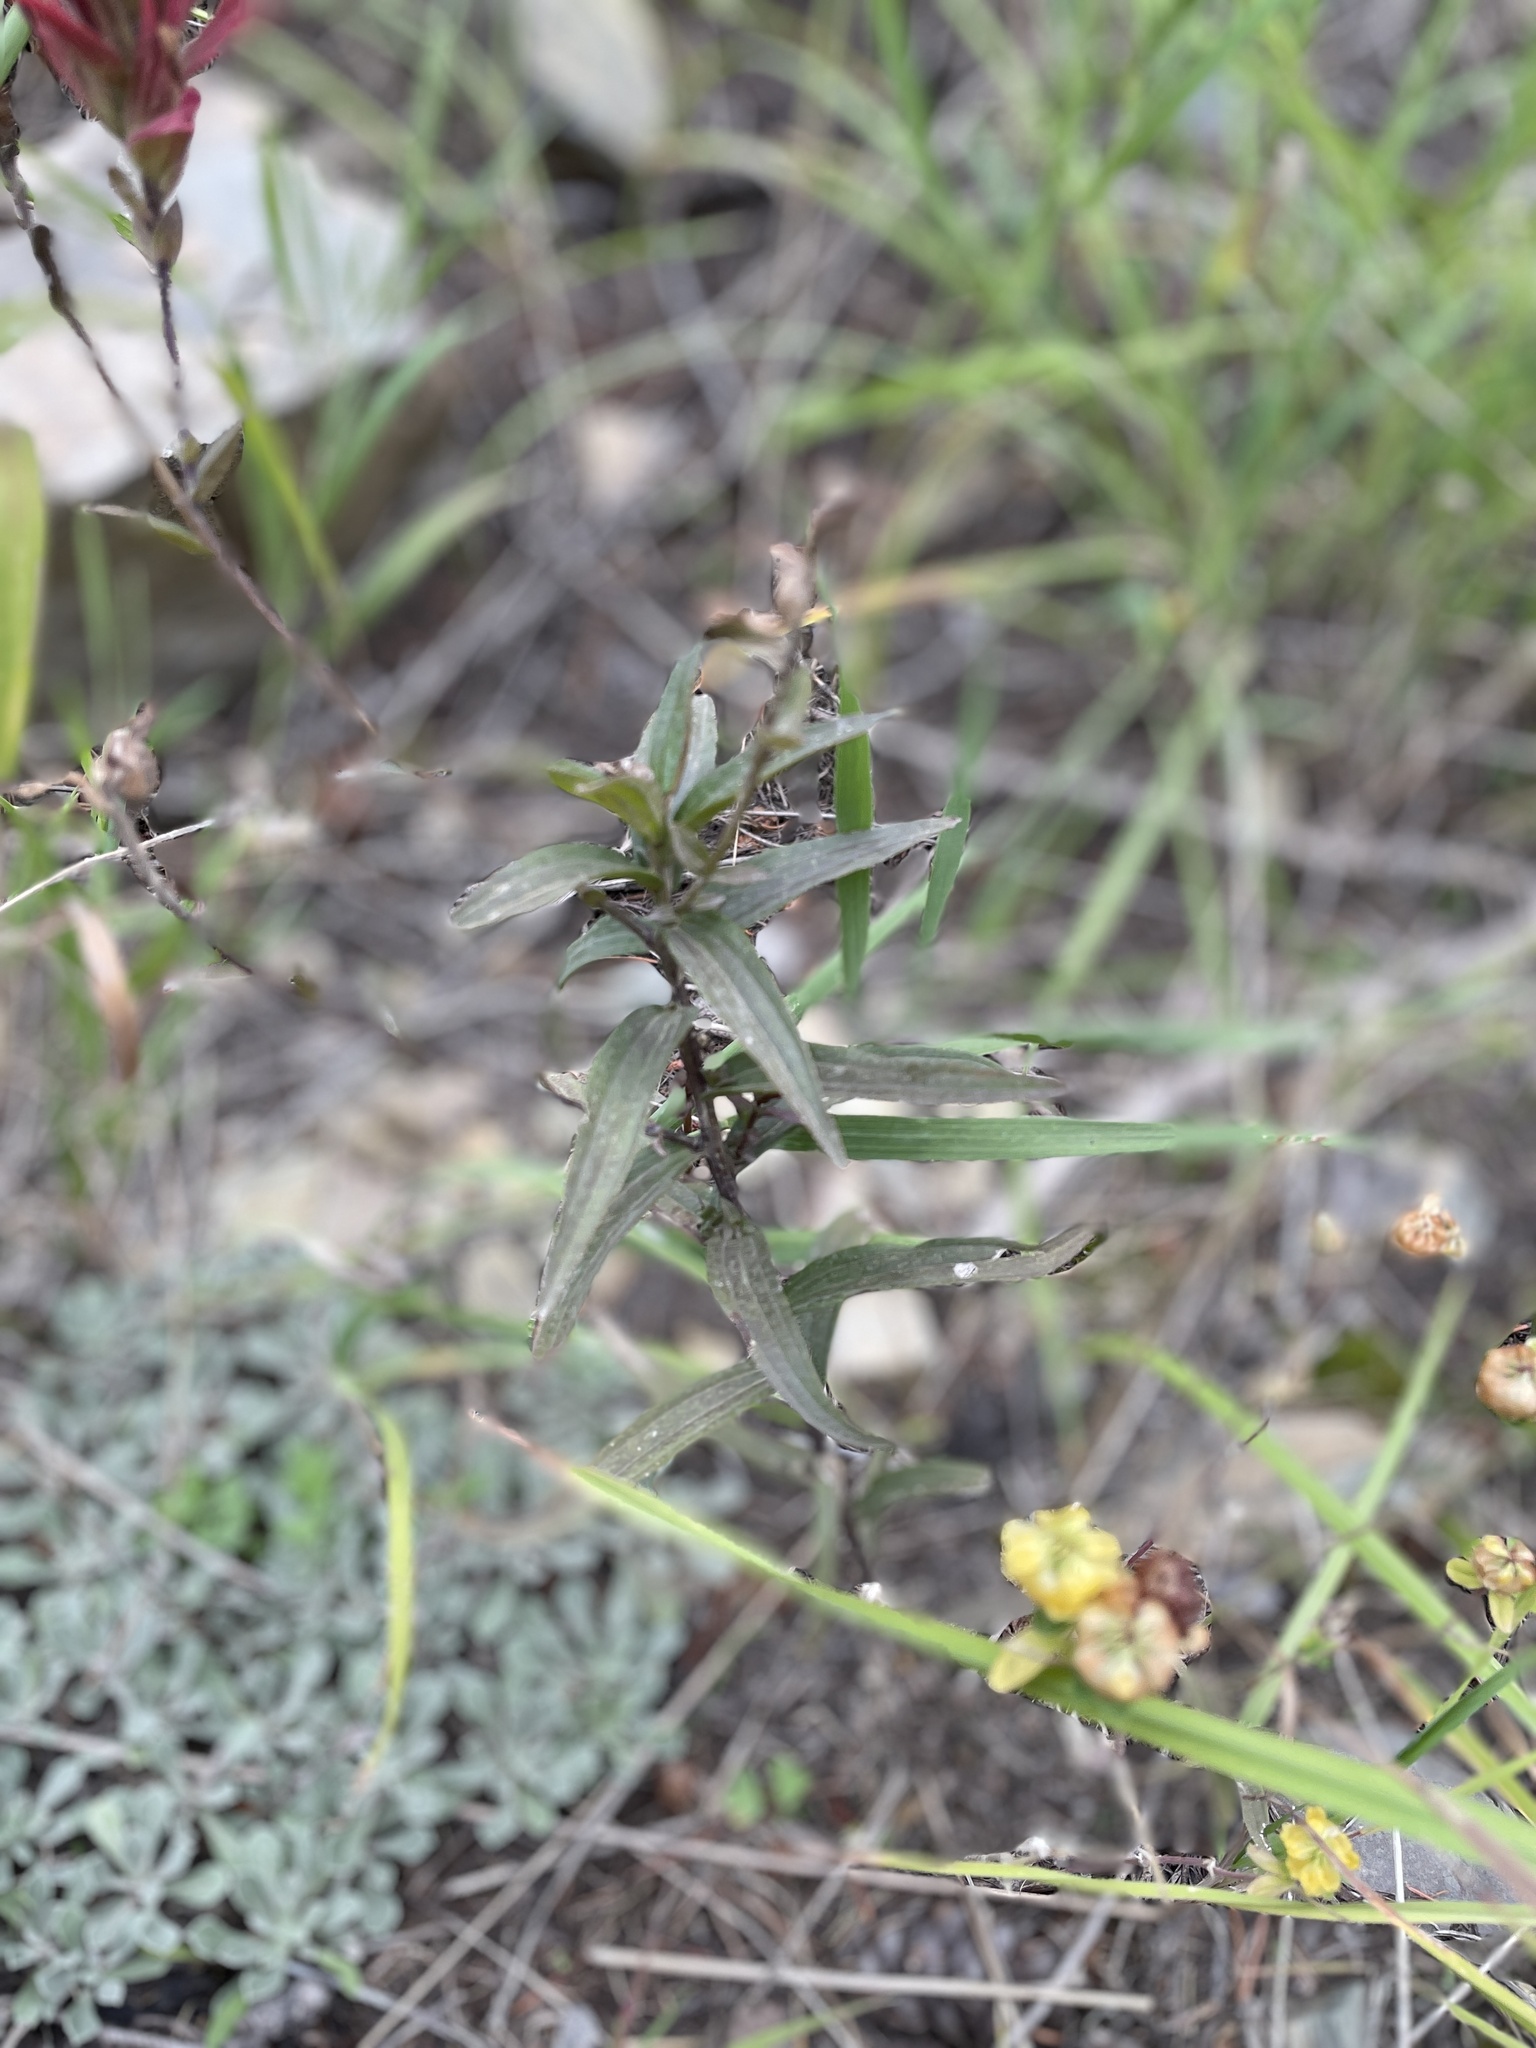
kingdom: Plantae
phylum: Tracheophyta
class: Magnoliopsida
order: Lamiales
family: Orobanchaceae
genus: Castilleja
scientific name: Castilleja miniata
